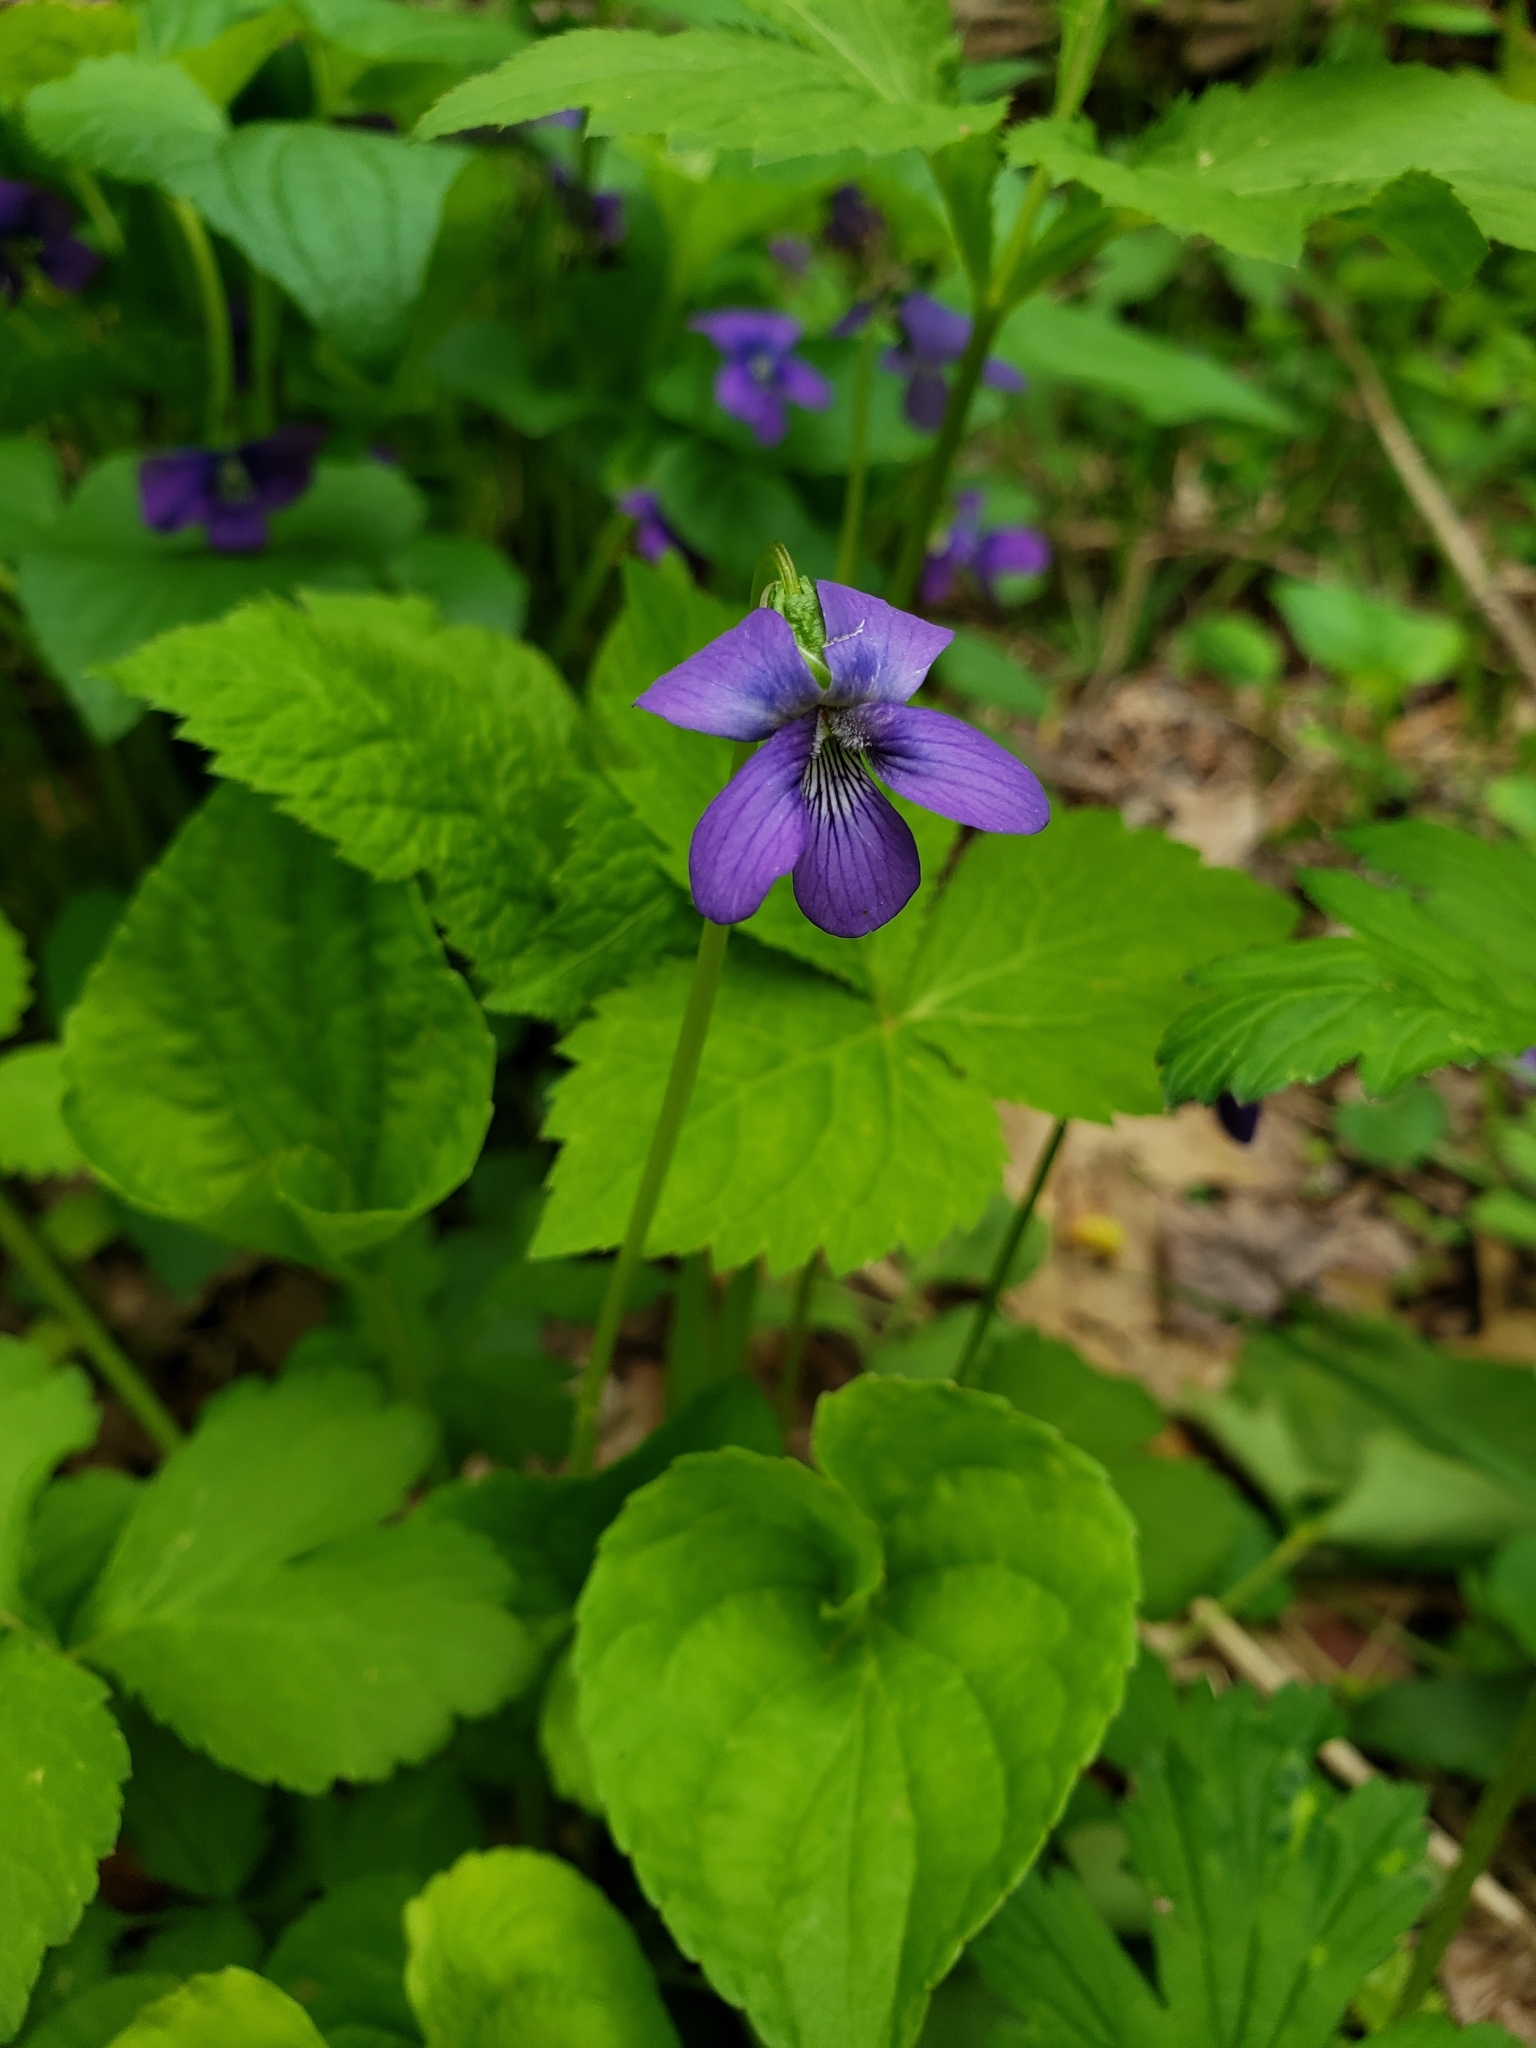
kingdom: Plantae
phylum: Tracheophyta
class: Magnoliopsida
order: Malpighiales
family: Violaceae
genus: Viola
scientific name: Viola cucullata
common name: Marsh blue violet
